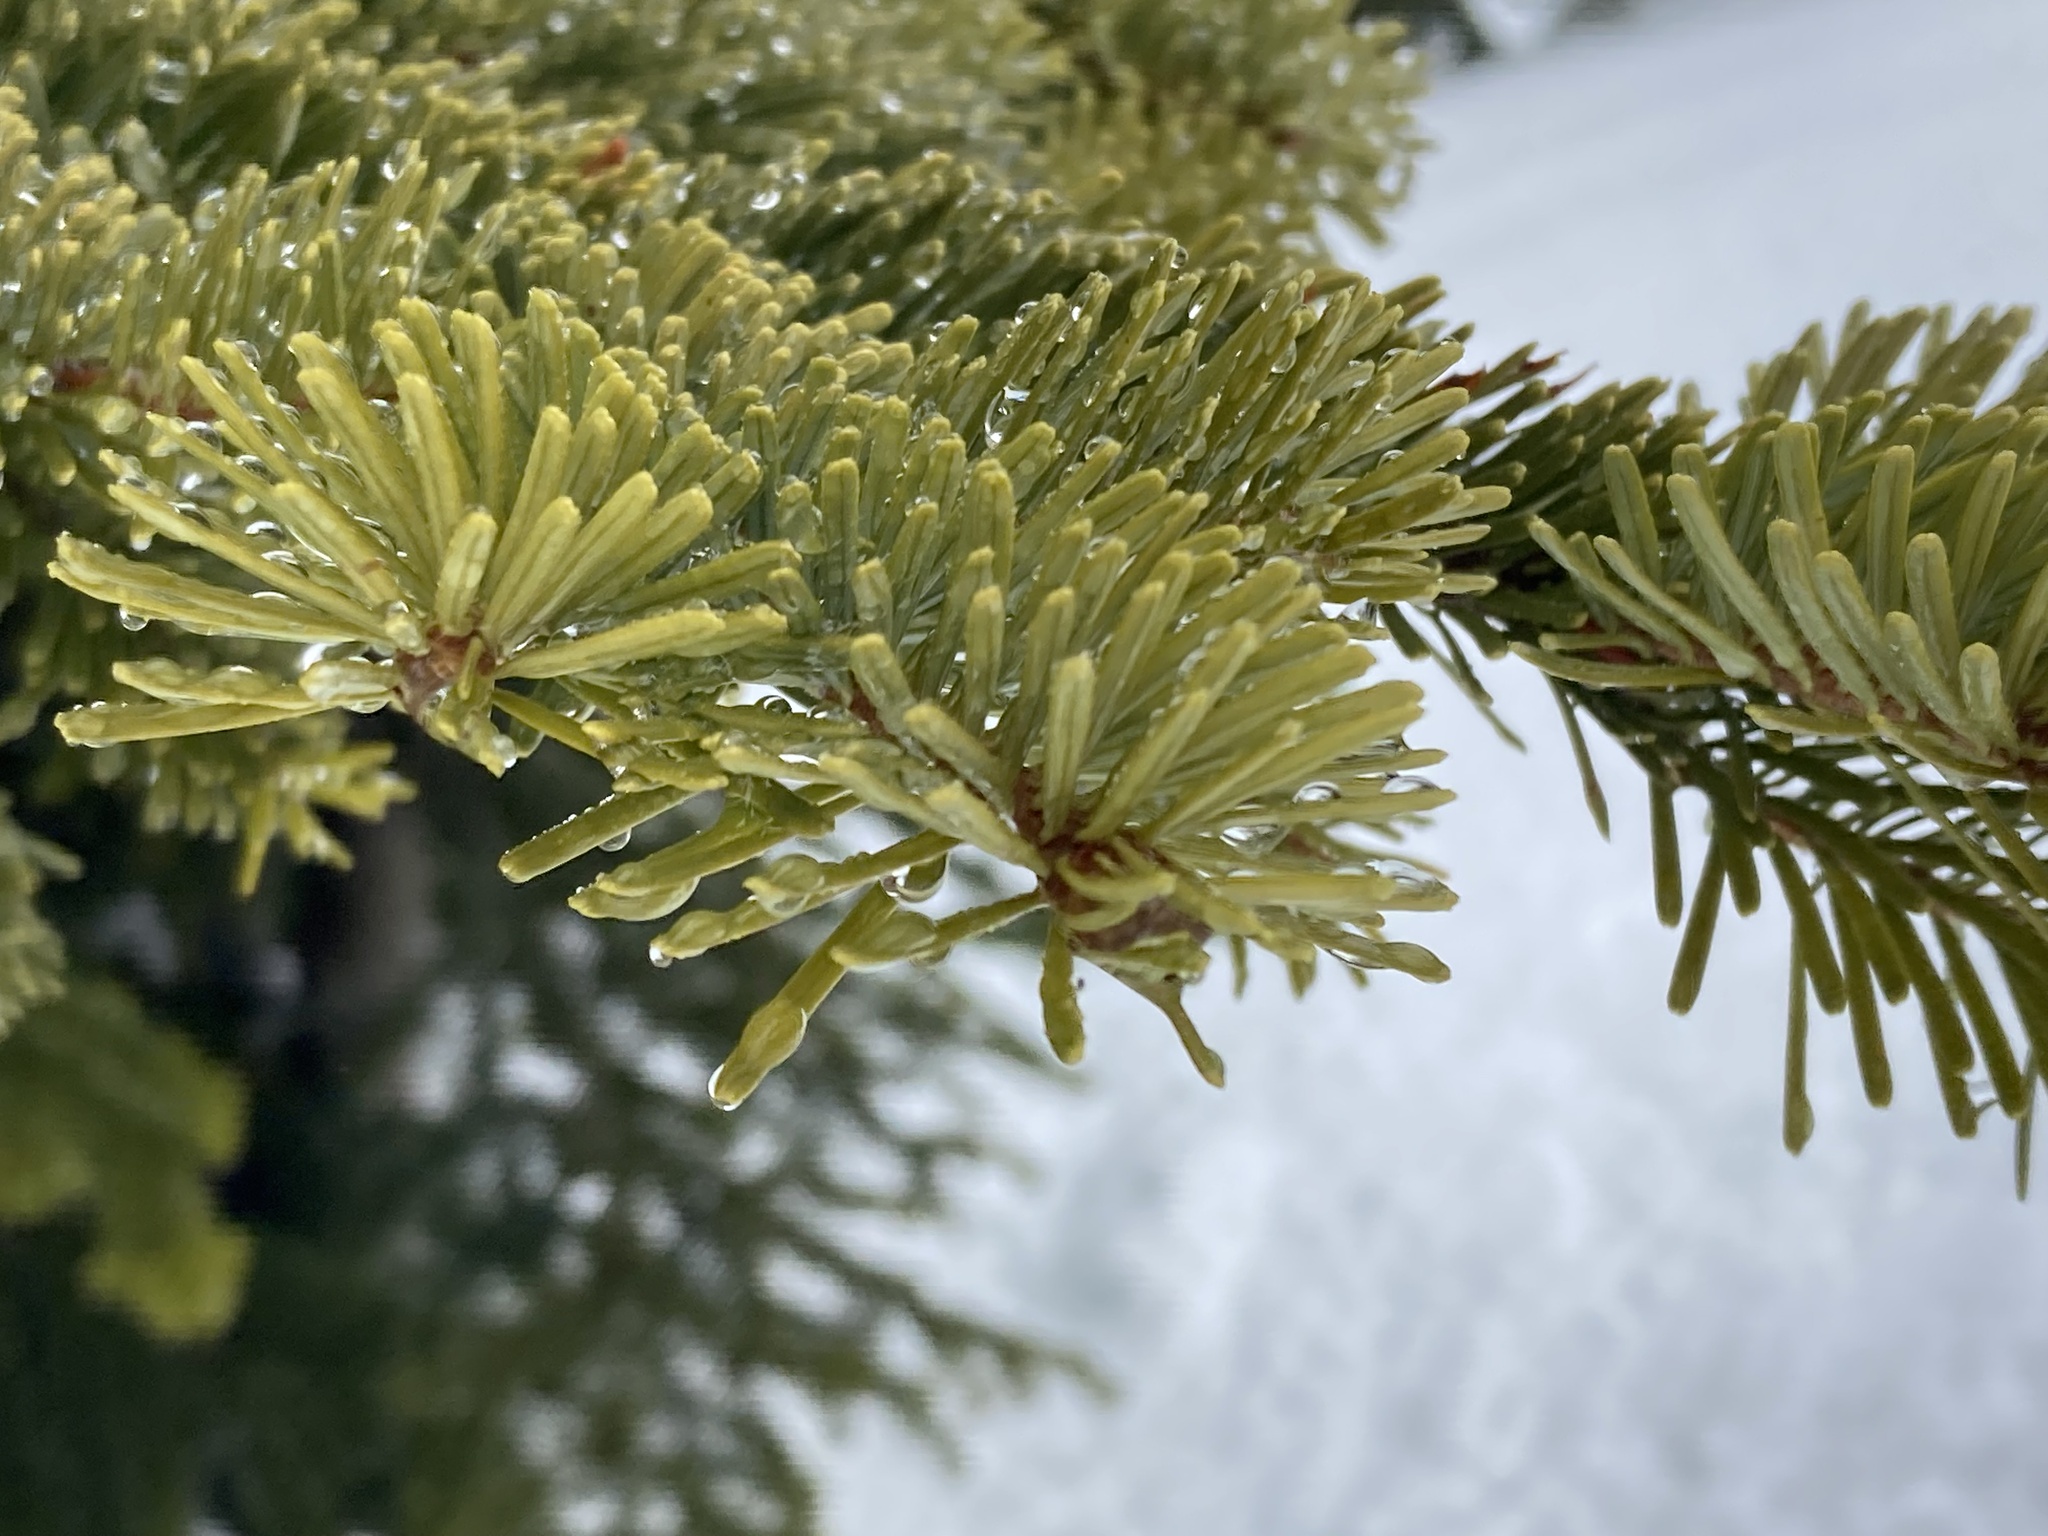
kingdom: Plantae
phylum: Tracheophyta
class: Pinopsida
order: Pinales
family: Pinaceae
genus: Abies
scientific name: Abies amabilis
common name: Pacific silver fir
